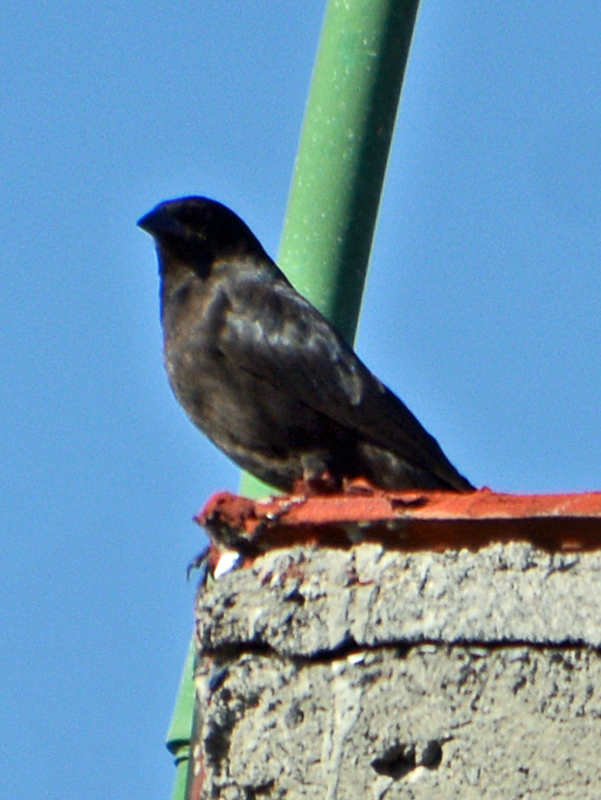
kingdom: Animalia
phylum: Chordata
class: Aves
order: Passeriformes
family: Icteridae
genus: Molothrus
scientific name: Molothrus aeneus
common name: Bronzed cowbird
